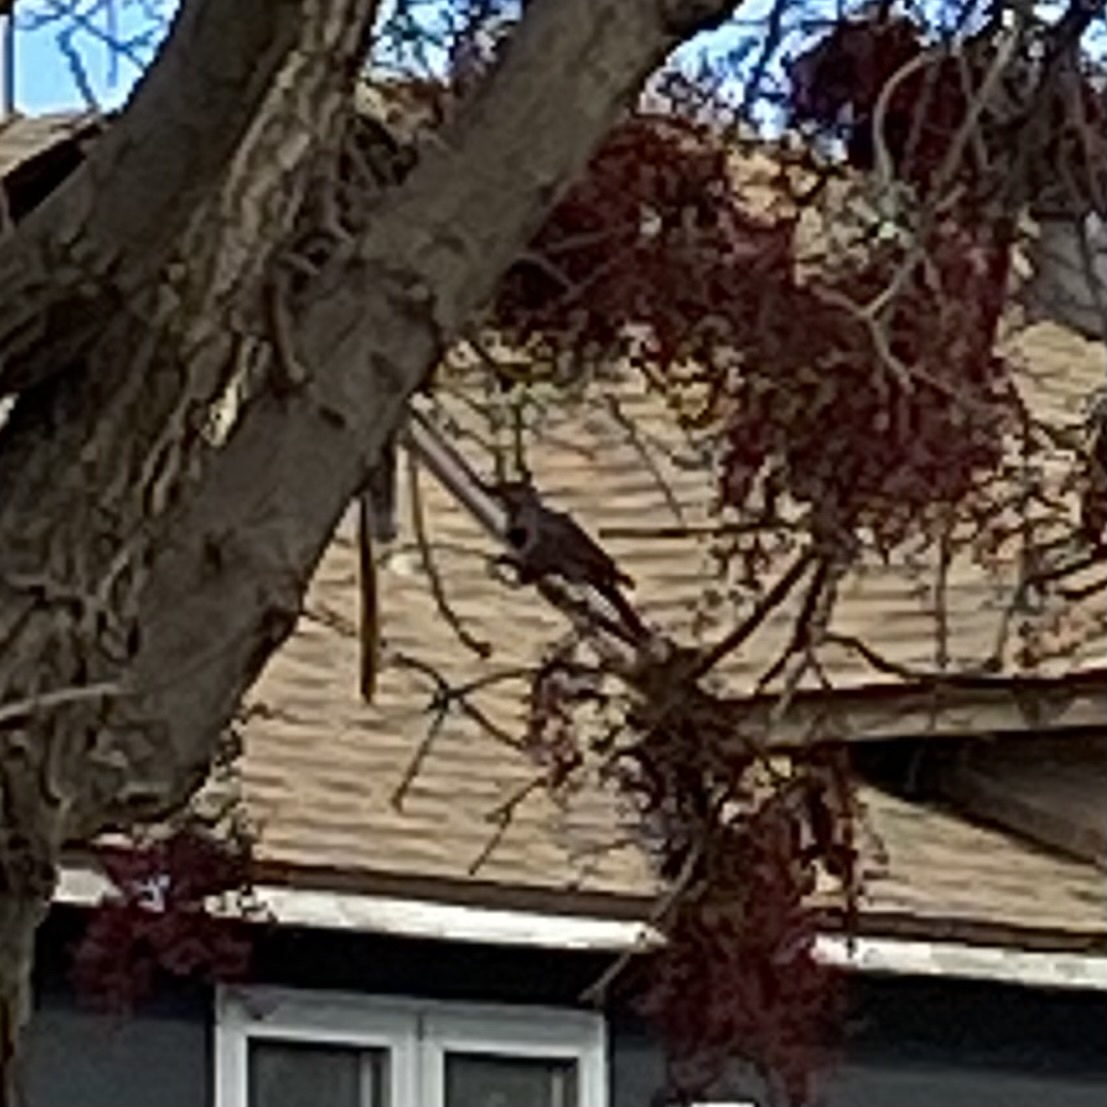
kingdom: Animalia
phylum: Chordata
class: Aves
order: Piciformes
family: Picidae
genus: Colaptes
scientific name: Colaptes auratus
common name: Northern flicker
